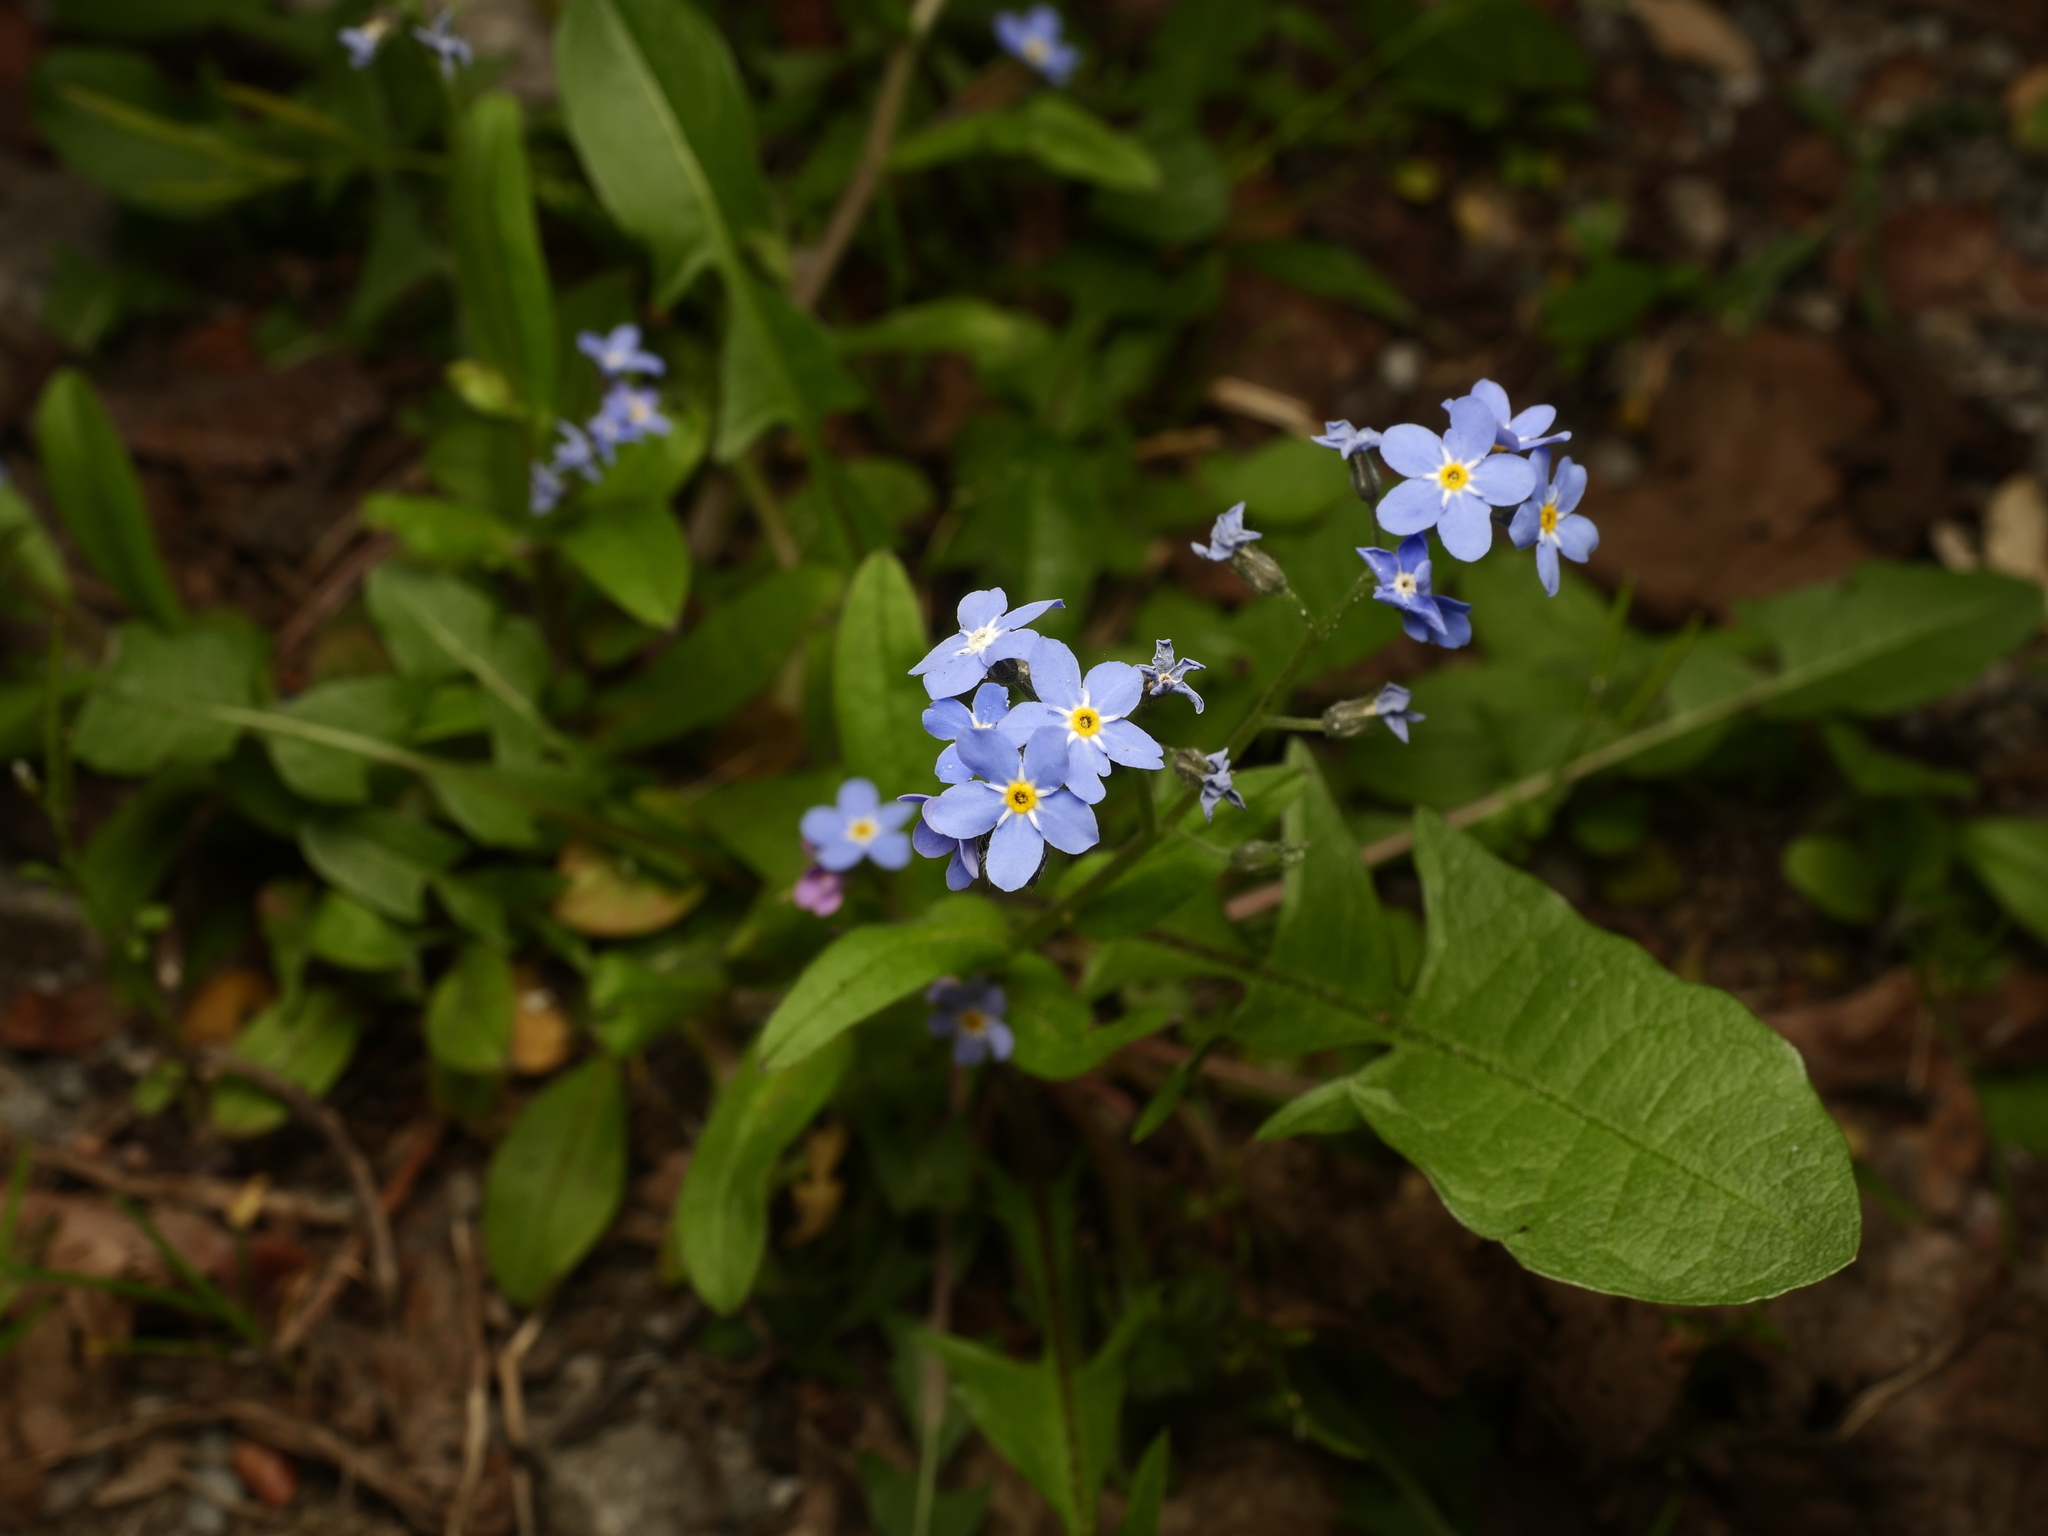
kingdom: Plantae
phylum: Tracheophyta
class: Magnoliopsida
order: Boraginales
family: Boraginaceae
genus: Myosotis
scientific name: Myosotis sylvatica
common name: Wood forget-me-not
